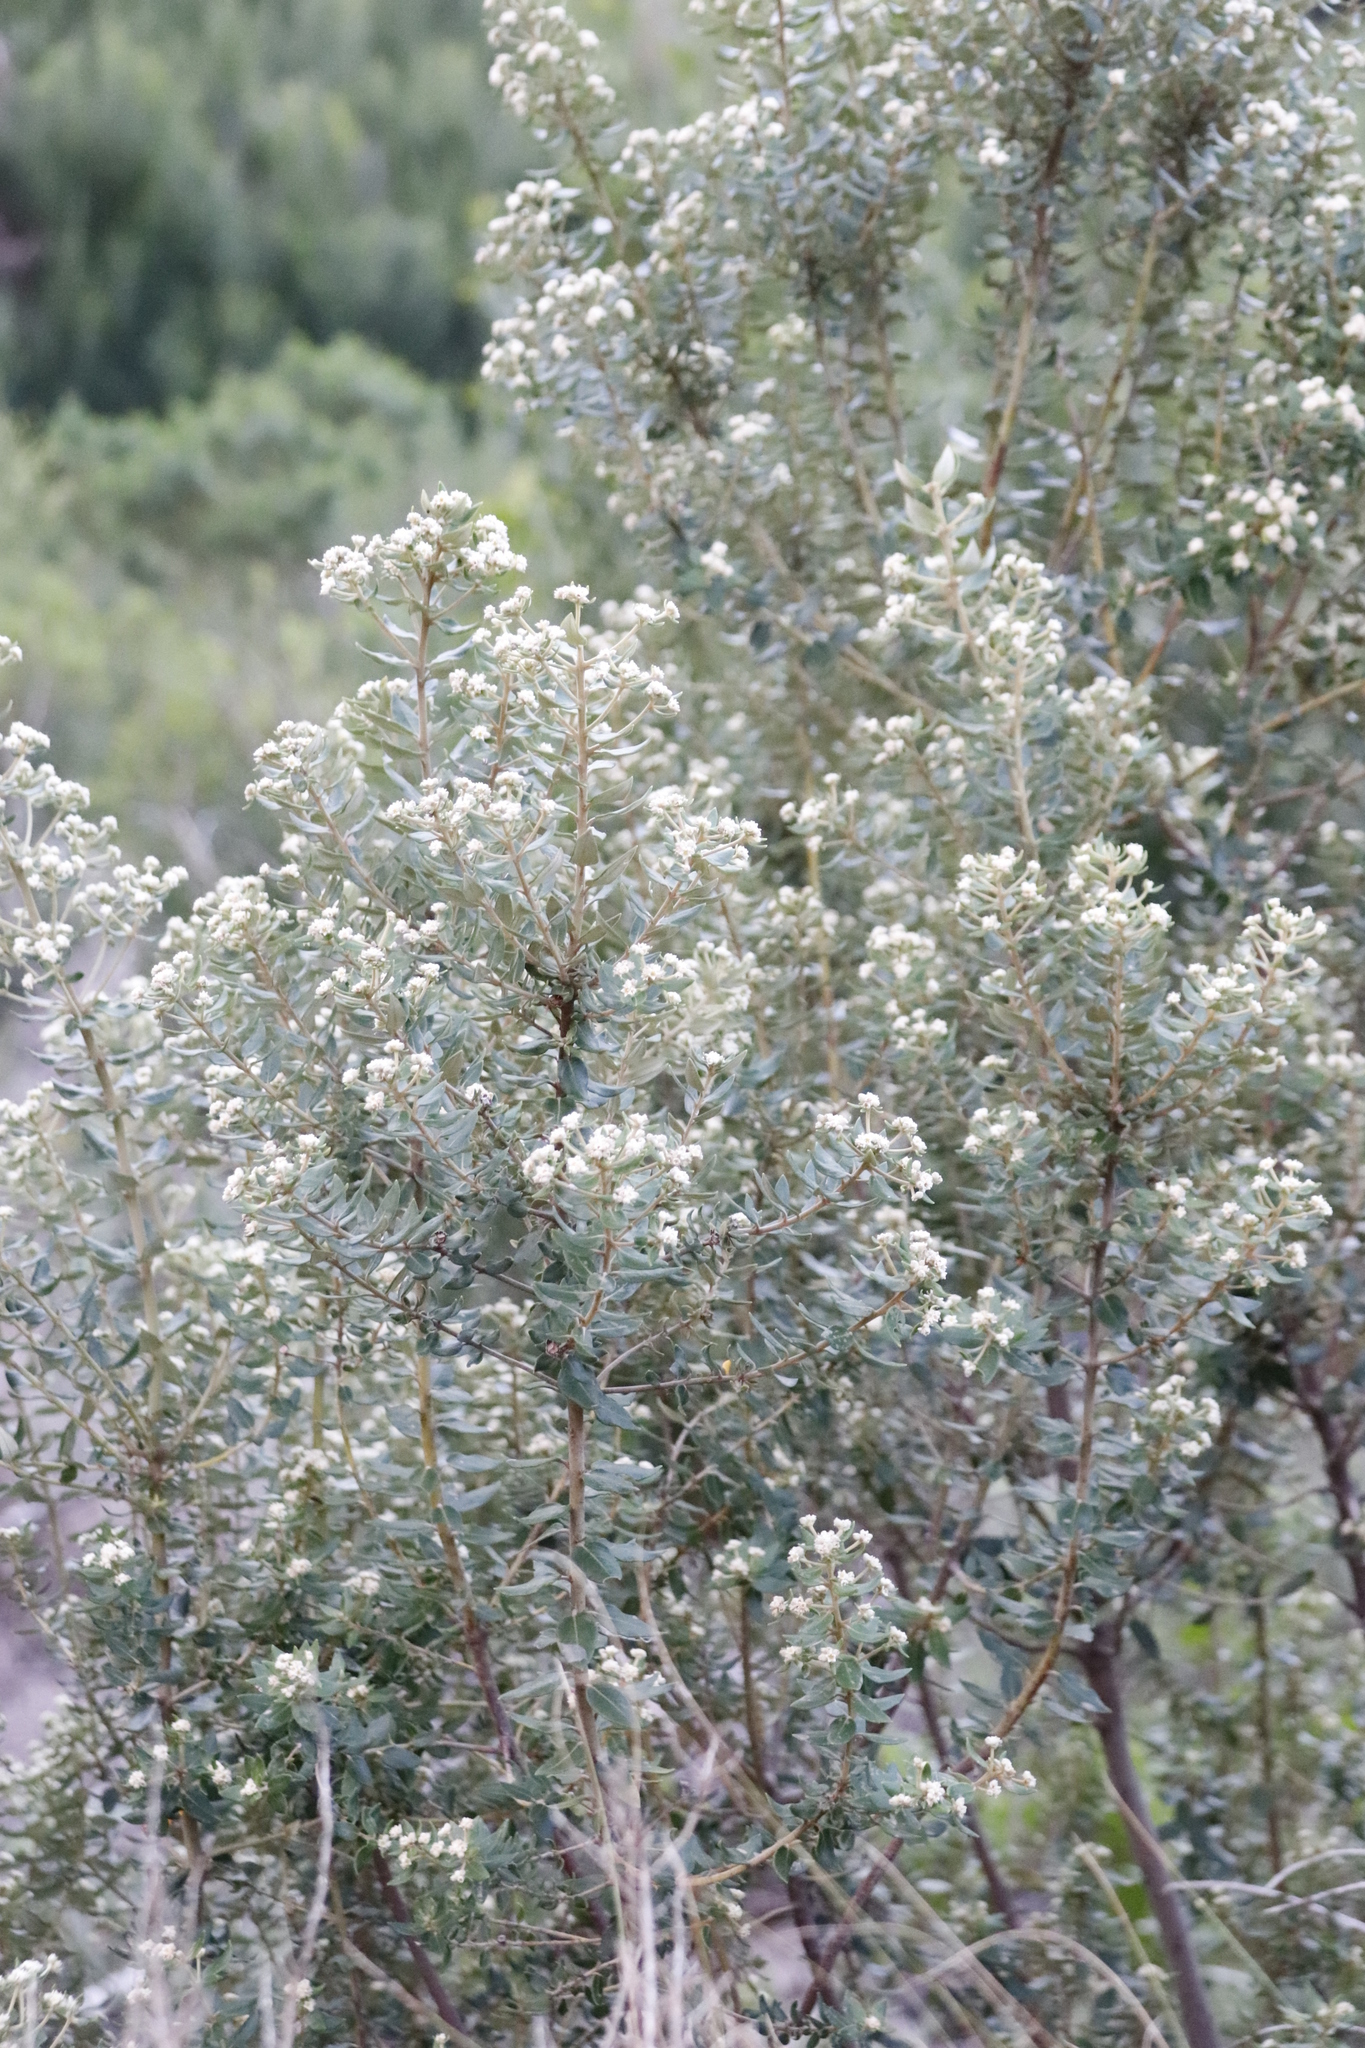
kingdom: Plantae
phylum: Tracheophyta
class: Magnoliopsida
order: Rosales
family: Rhamnaceae
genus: Phylica
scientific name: Phylica buxifolia
